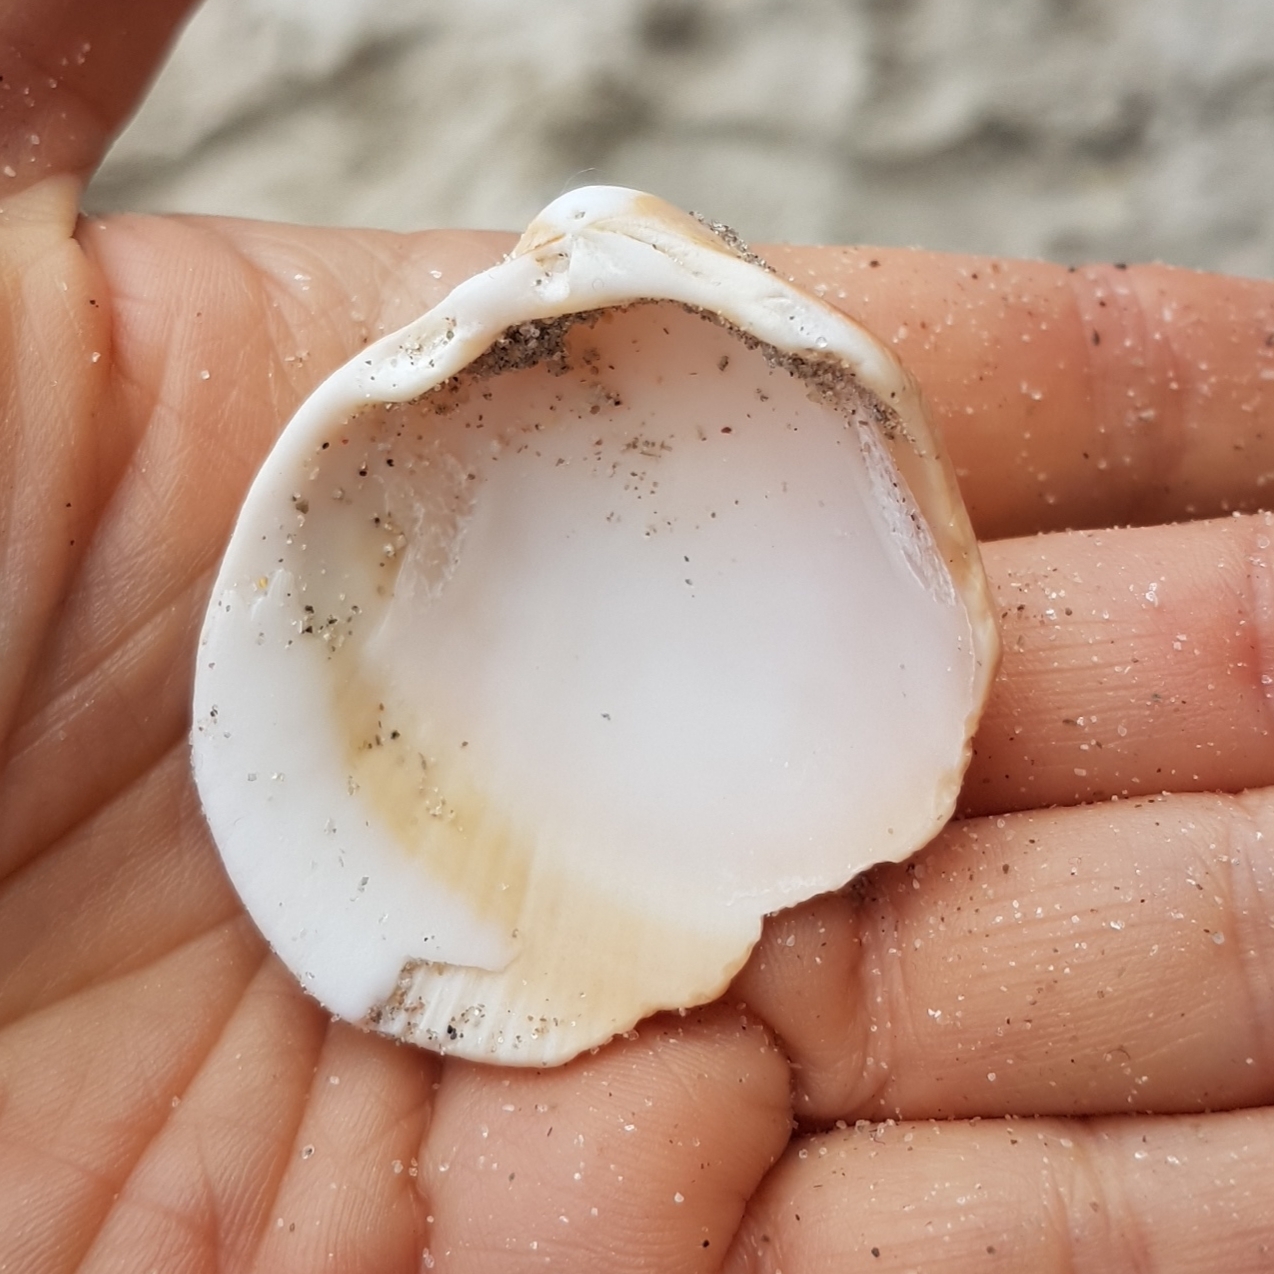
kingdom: Animalia
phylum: Mollusca
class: Bivalvia
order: Cardiida
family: Cardiidae
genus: Laevicardium
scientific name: Laevicardium crassum
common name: Norway cockle
